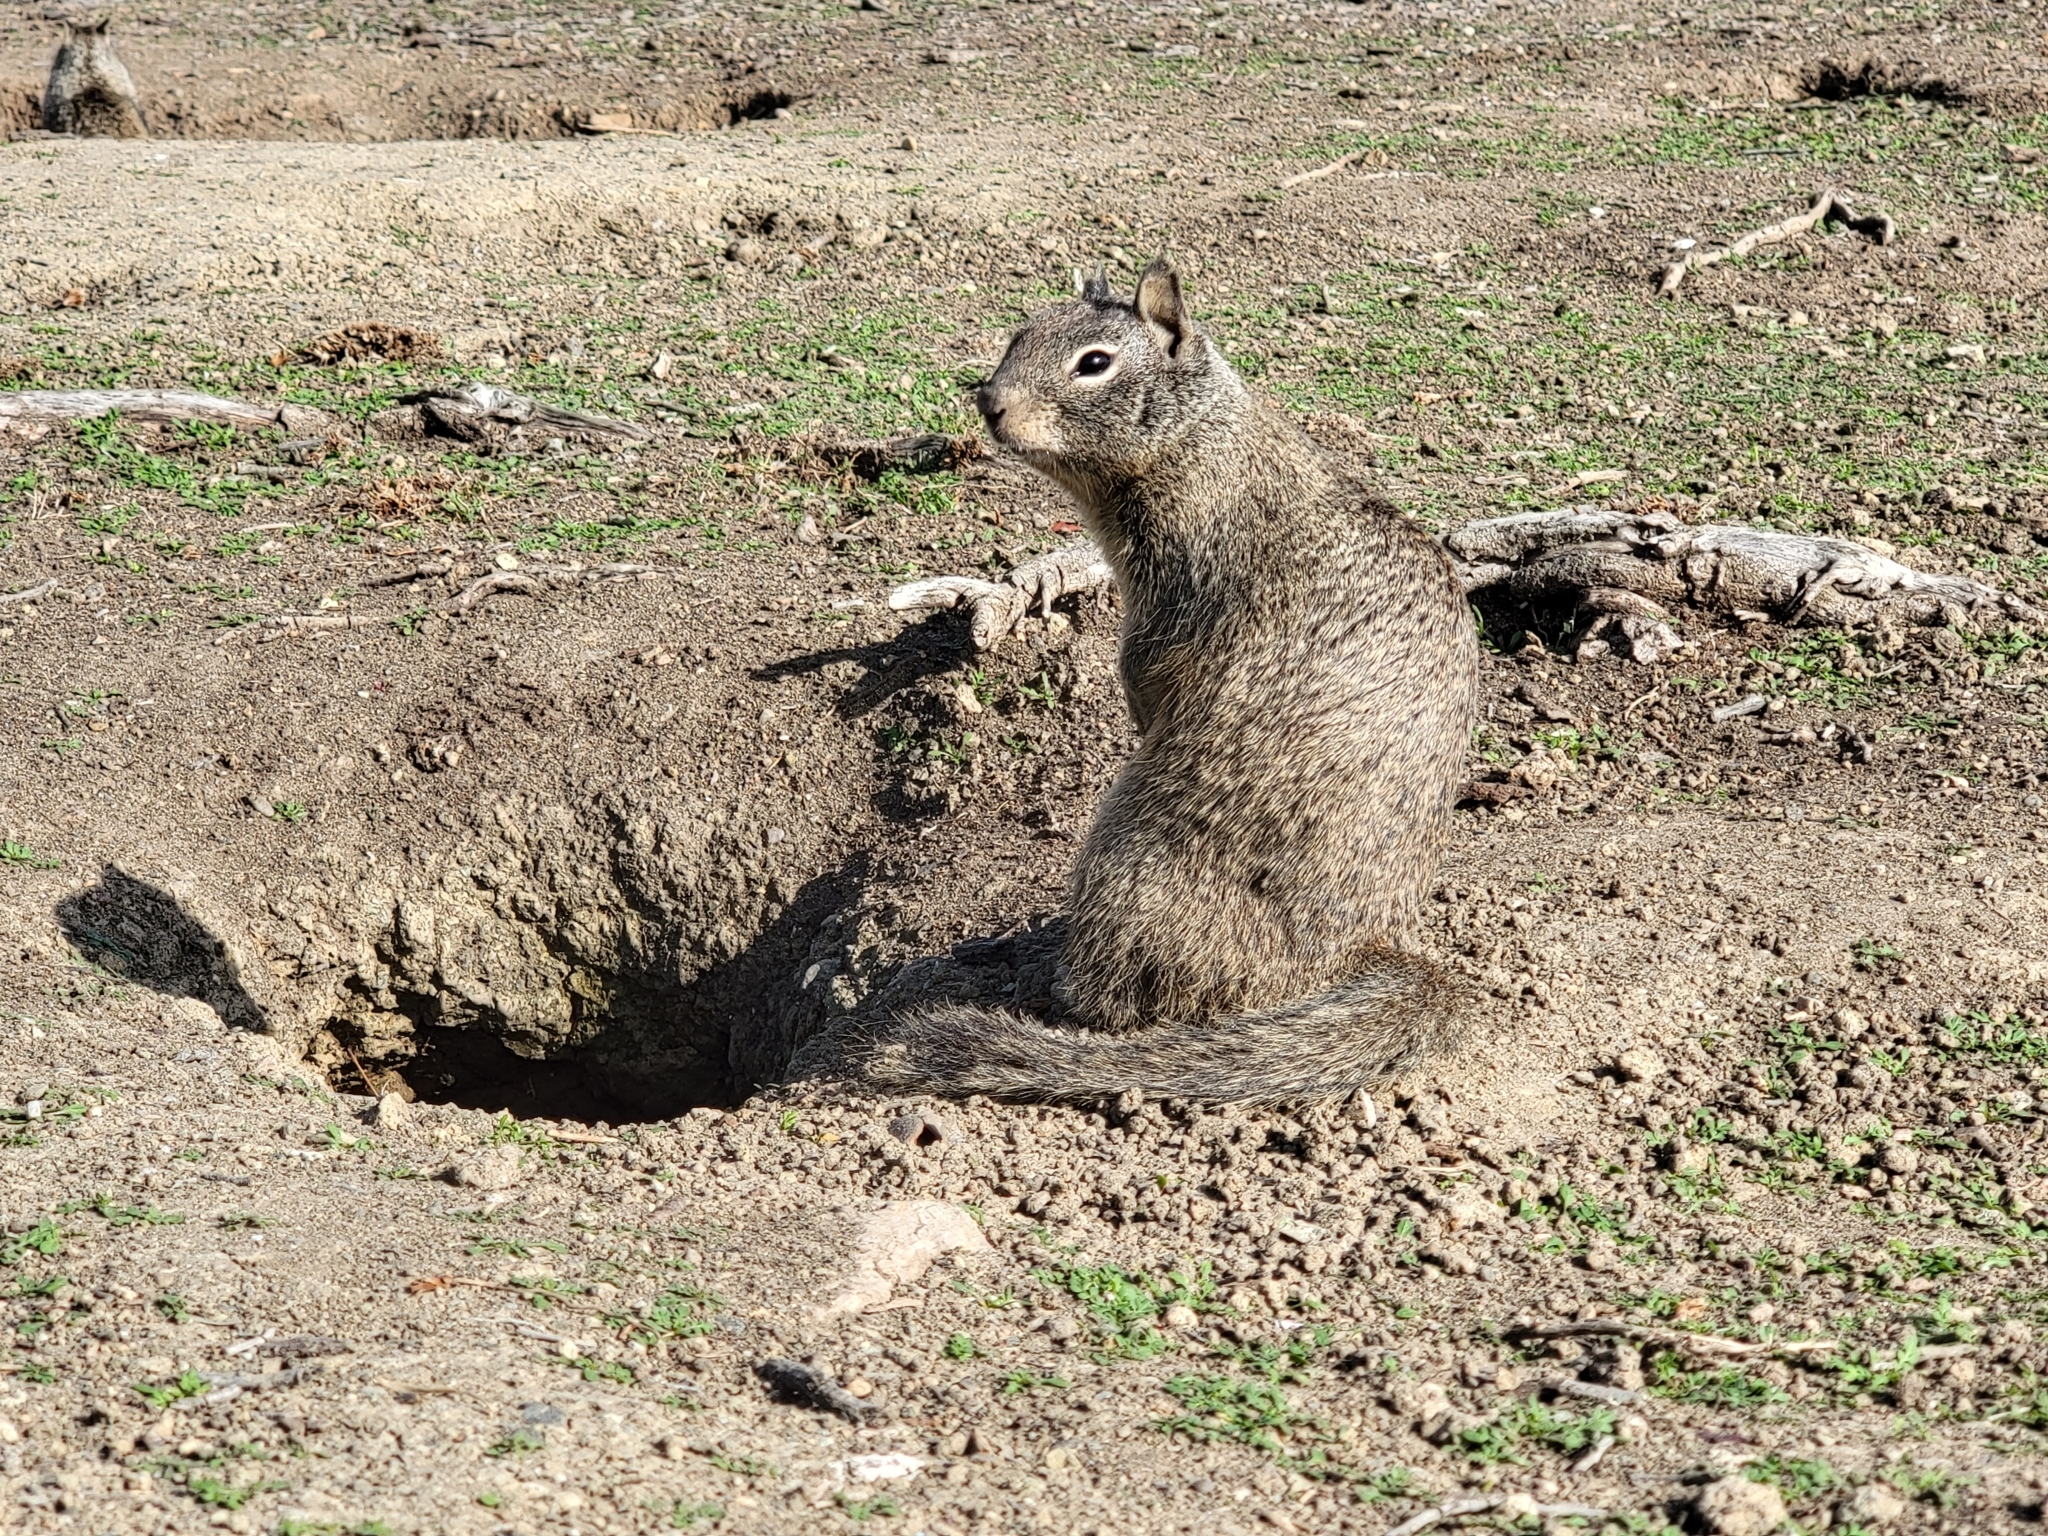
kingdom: Animalia
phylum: Chordata
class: Mammalia
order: Rodentia
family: Sciuridae
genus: Otospermophilus
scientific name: Otospermophilus beecheyi
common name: California ground squirrel
